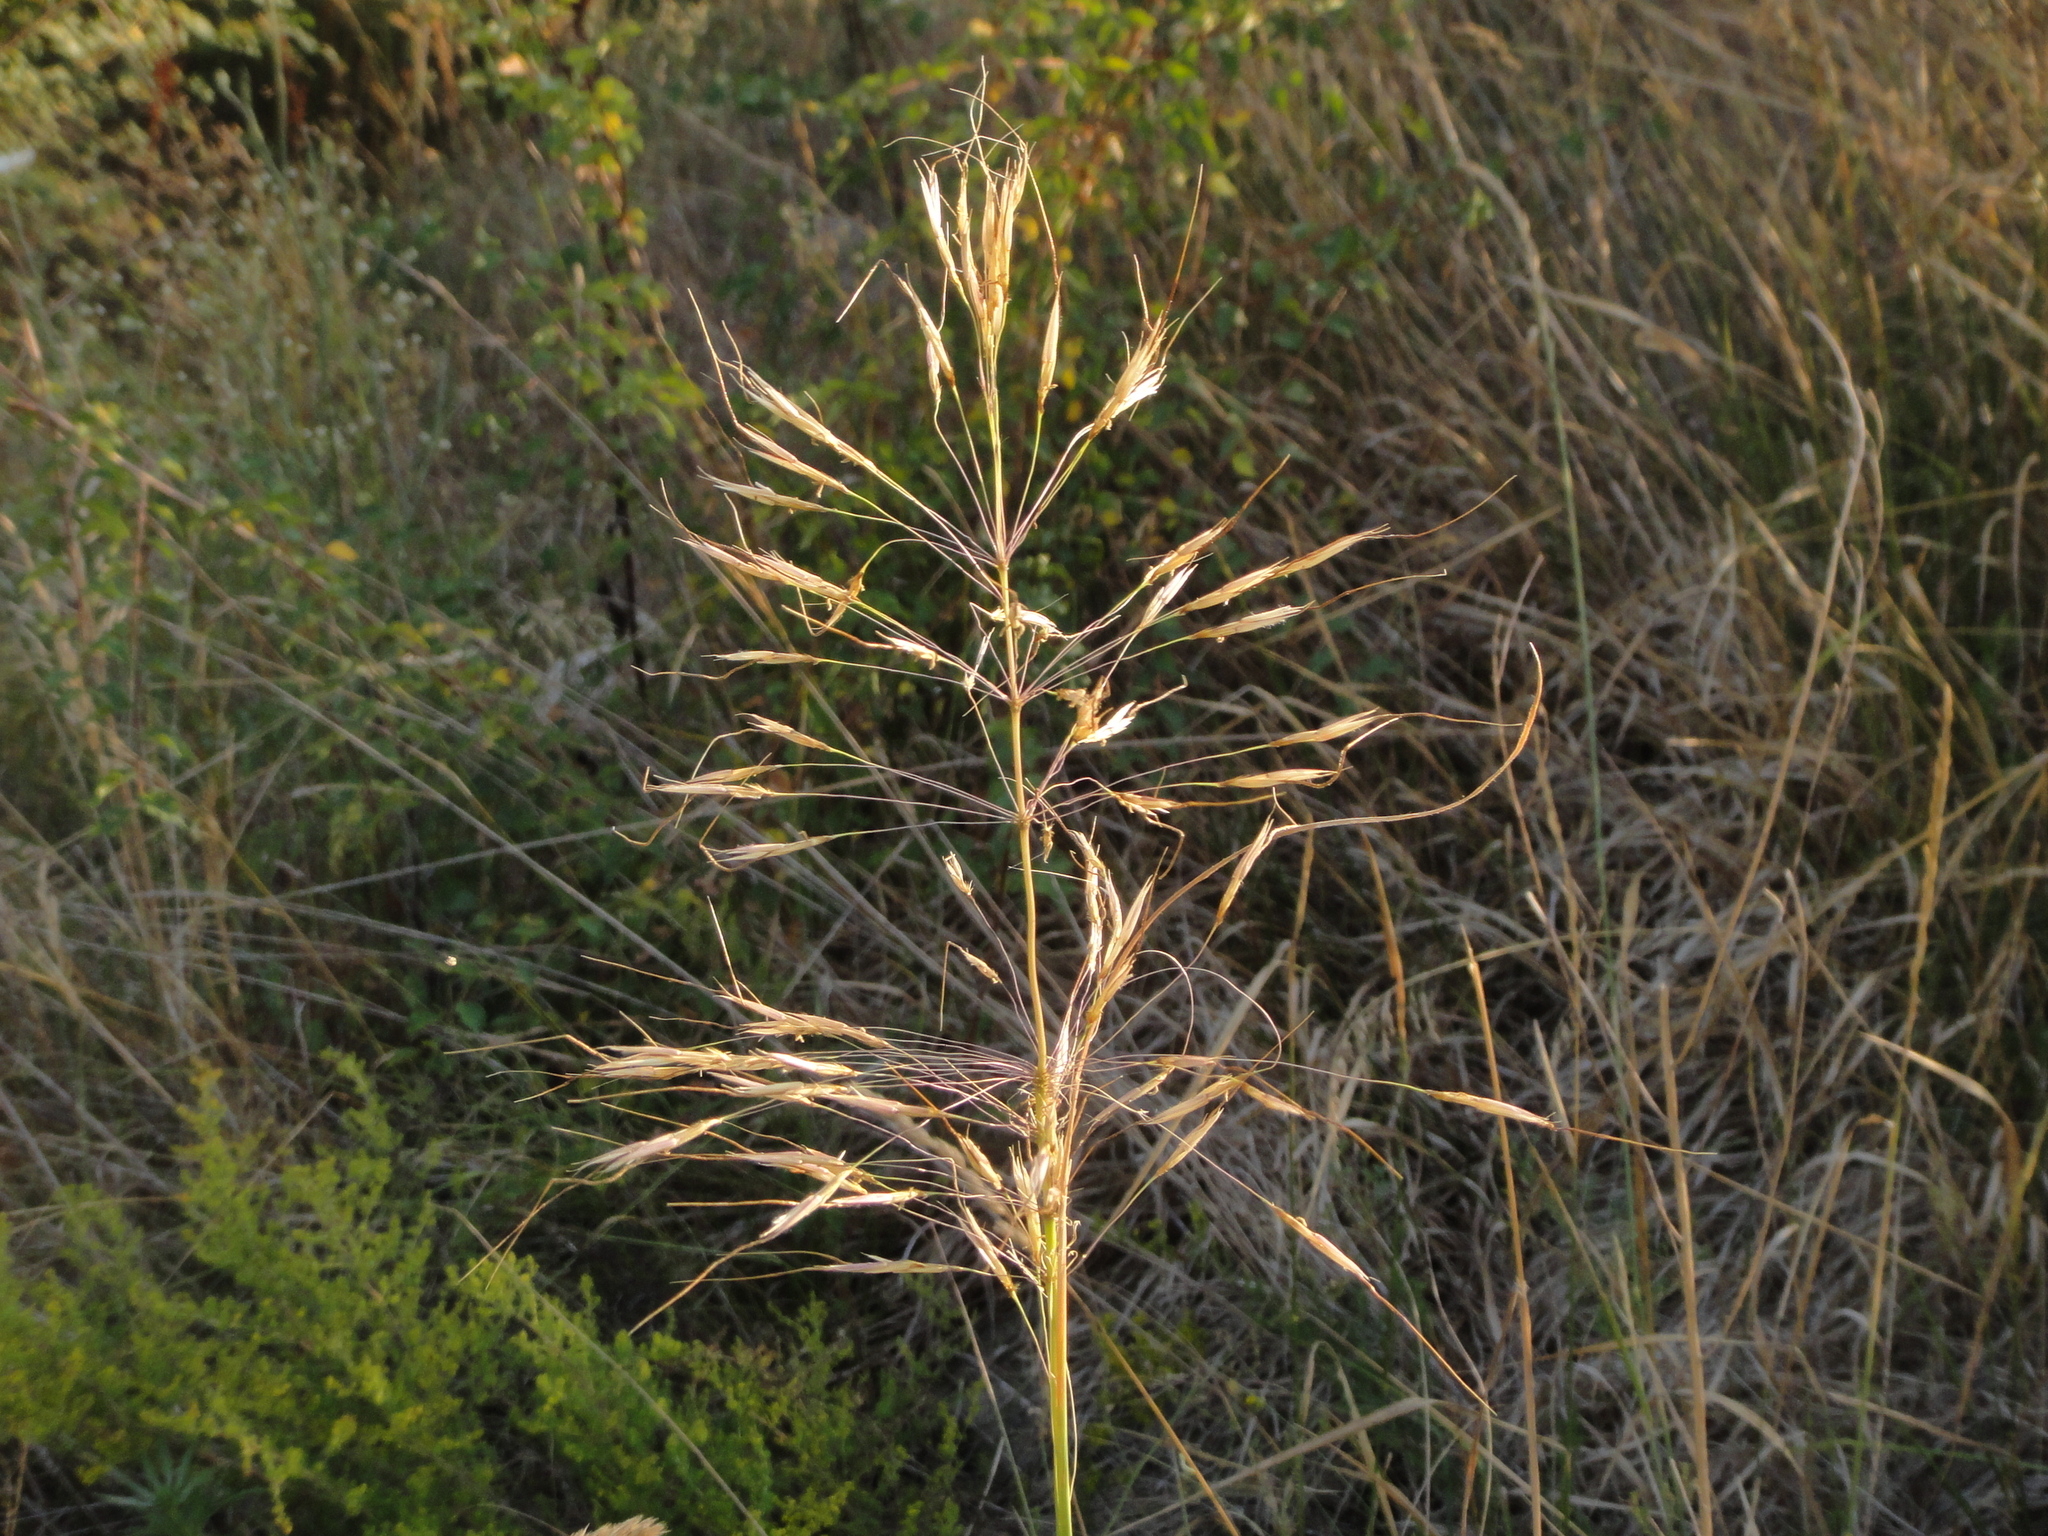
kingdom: Plantae
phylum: Tracheophyta
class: Liliopsida
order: Poales
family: Poaceae
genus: Chrysopogon
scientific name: Chrysopogon gryllus
